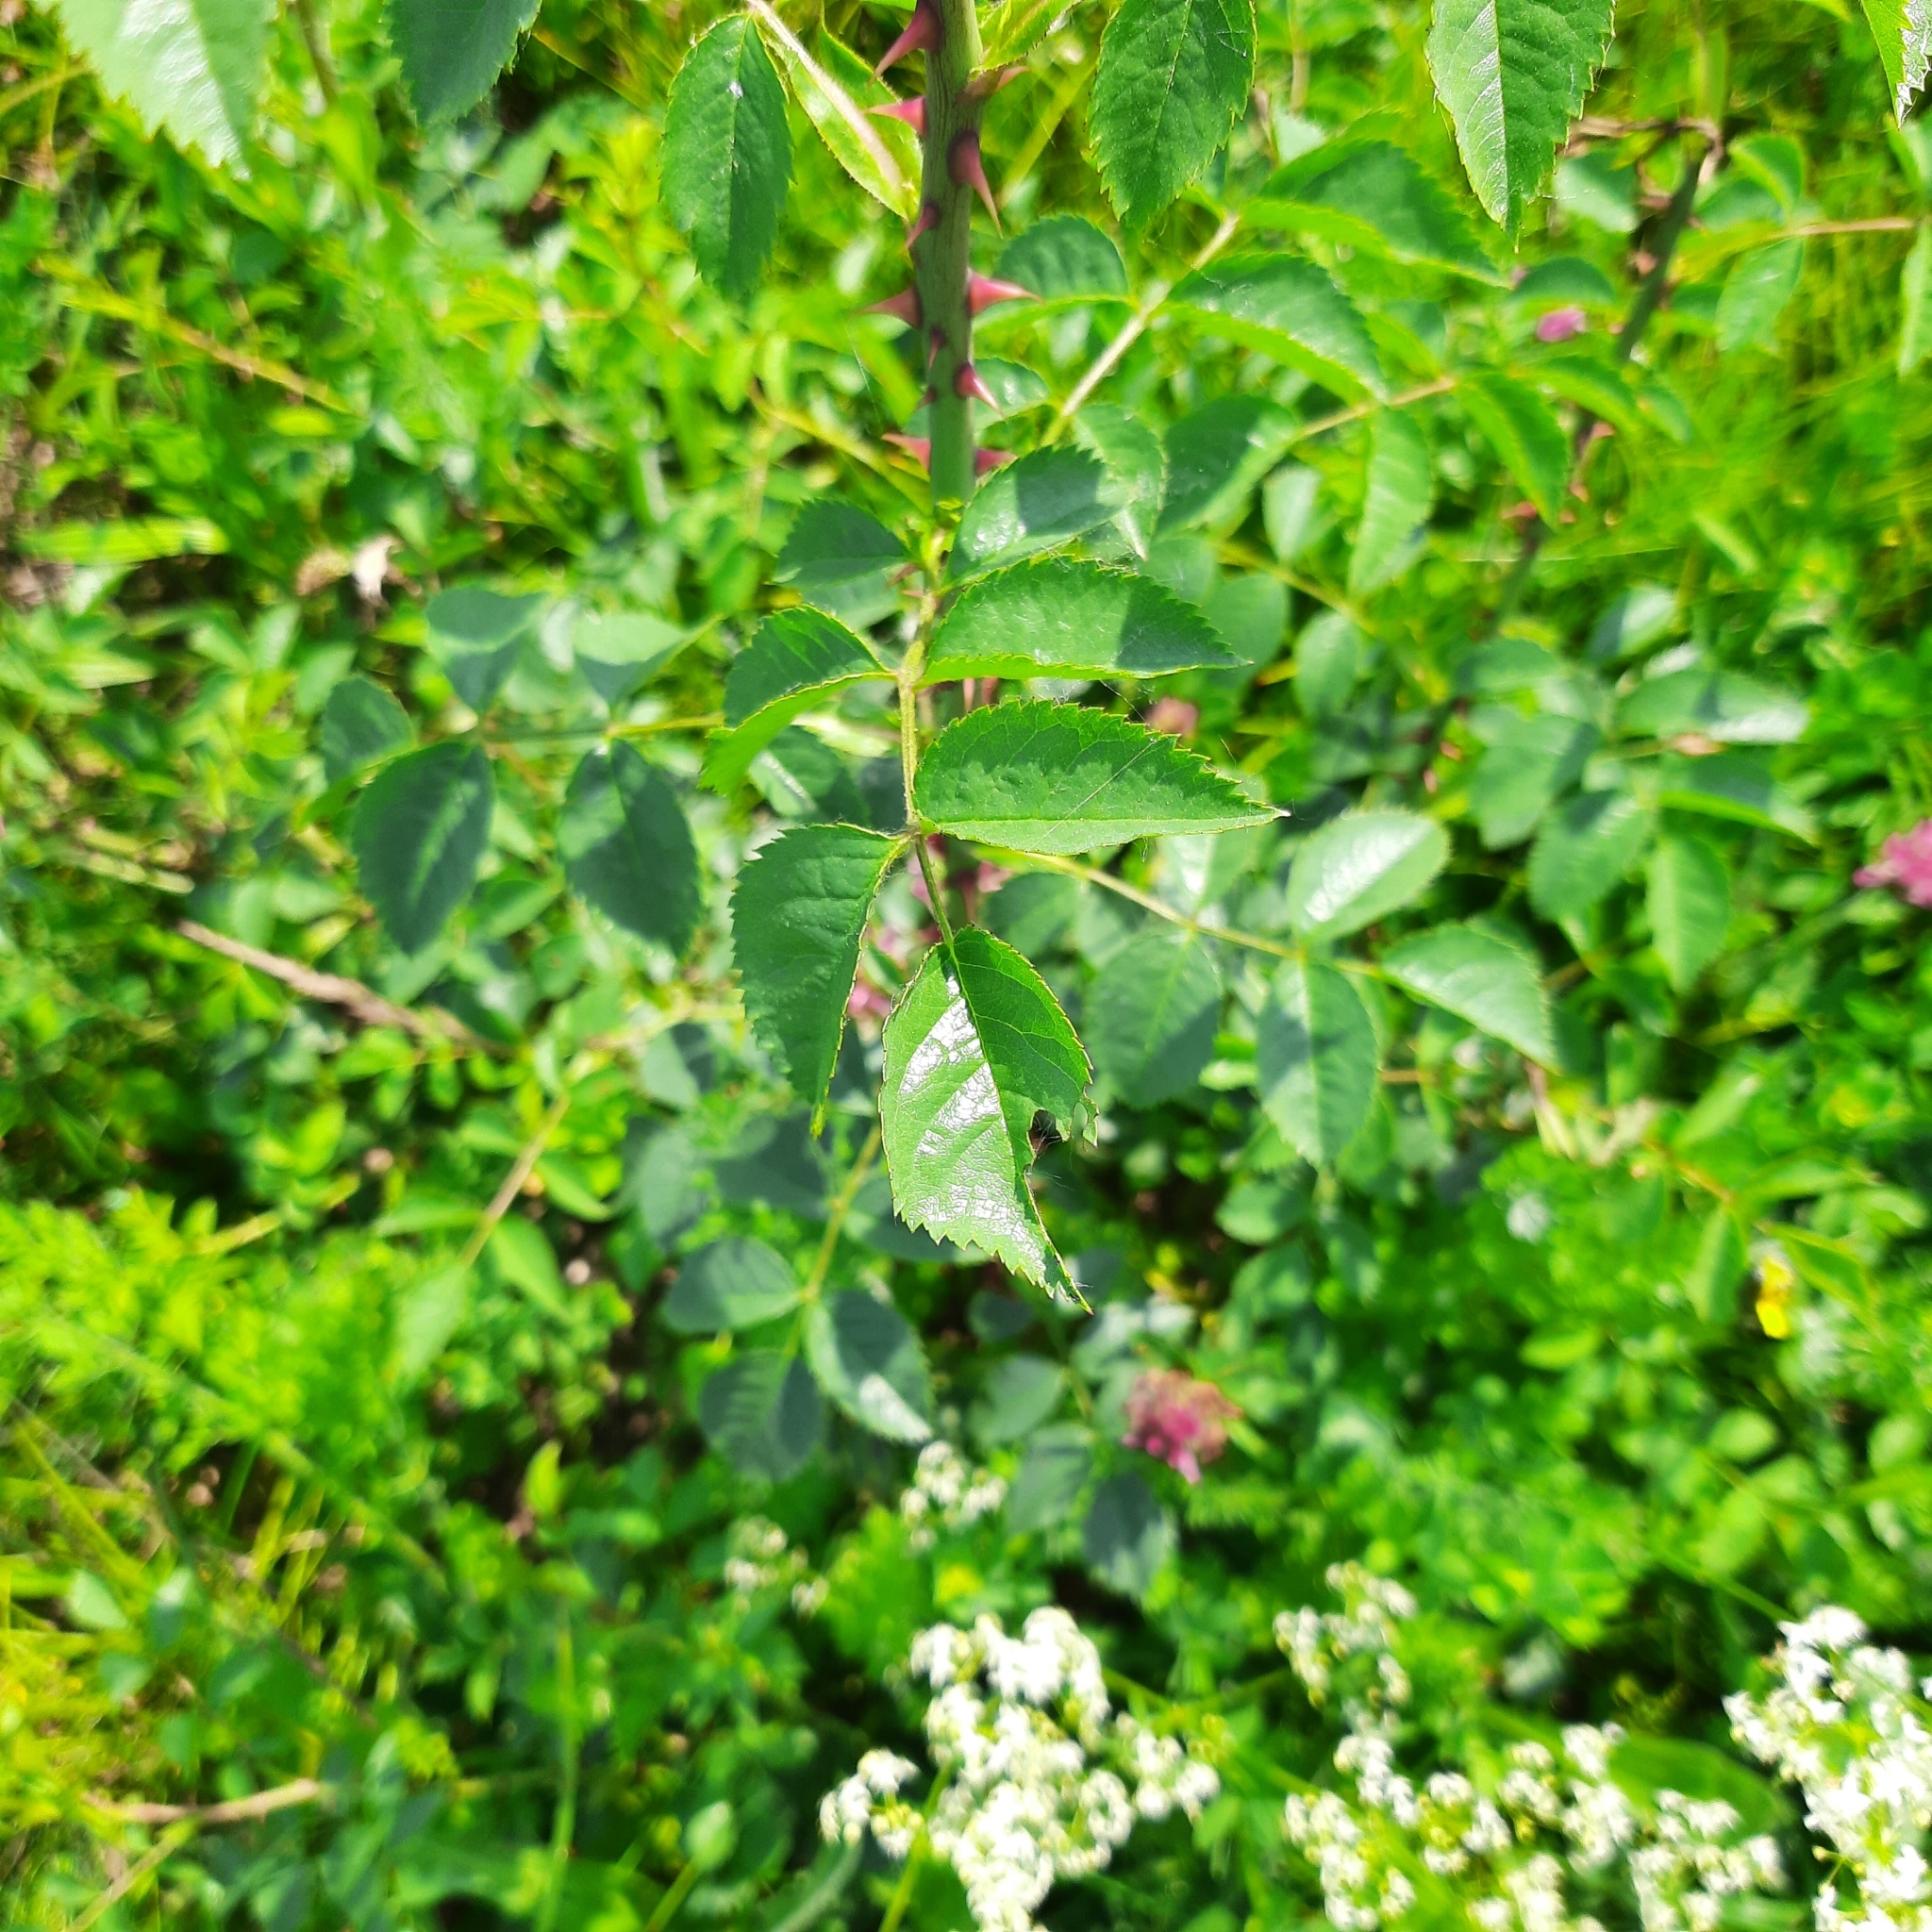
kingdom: Plantae
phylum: Tracheophyta
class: Magnoliopsida
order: Rosales
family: Rosaceae
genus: Rosa
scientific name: Rosa
